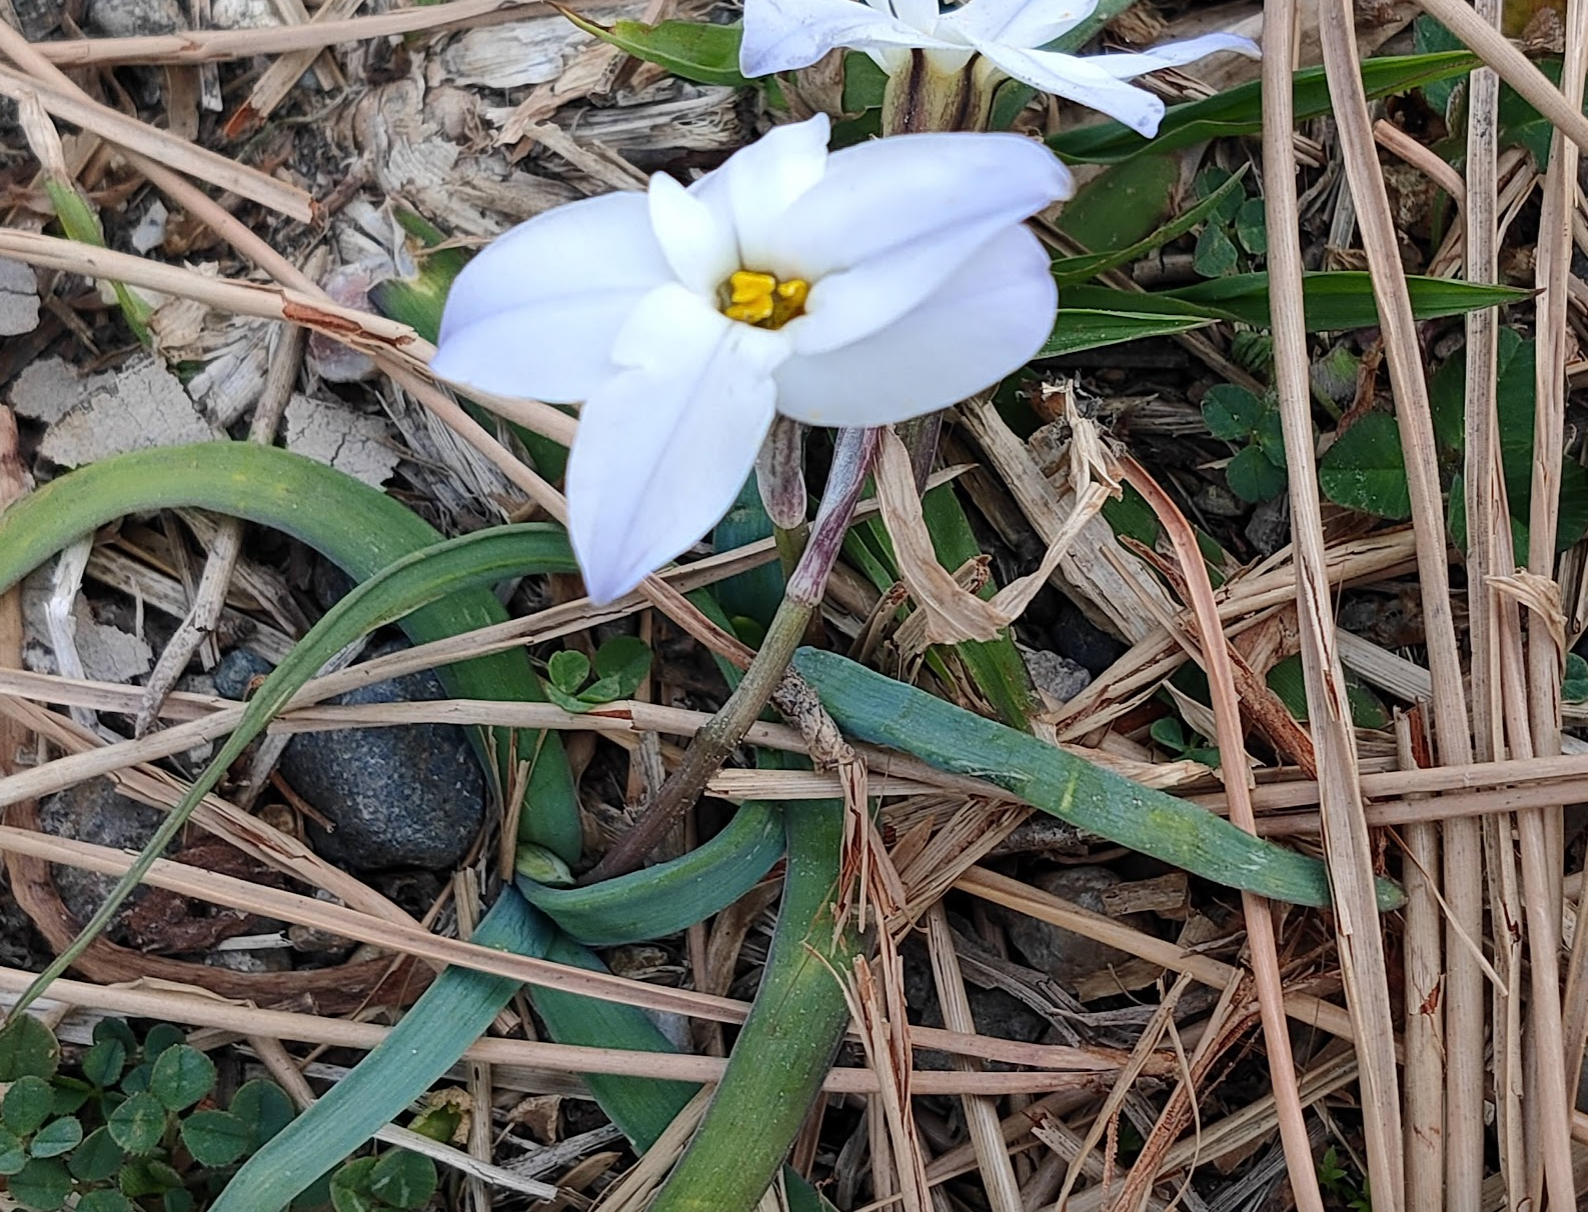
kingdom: Plantae
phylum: Tracheophyta
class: Liliopsida
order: Asparagales
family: Amaryllidaceae
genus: Ipheion
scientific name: Ipheion uniflorum
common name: Spring starflower
